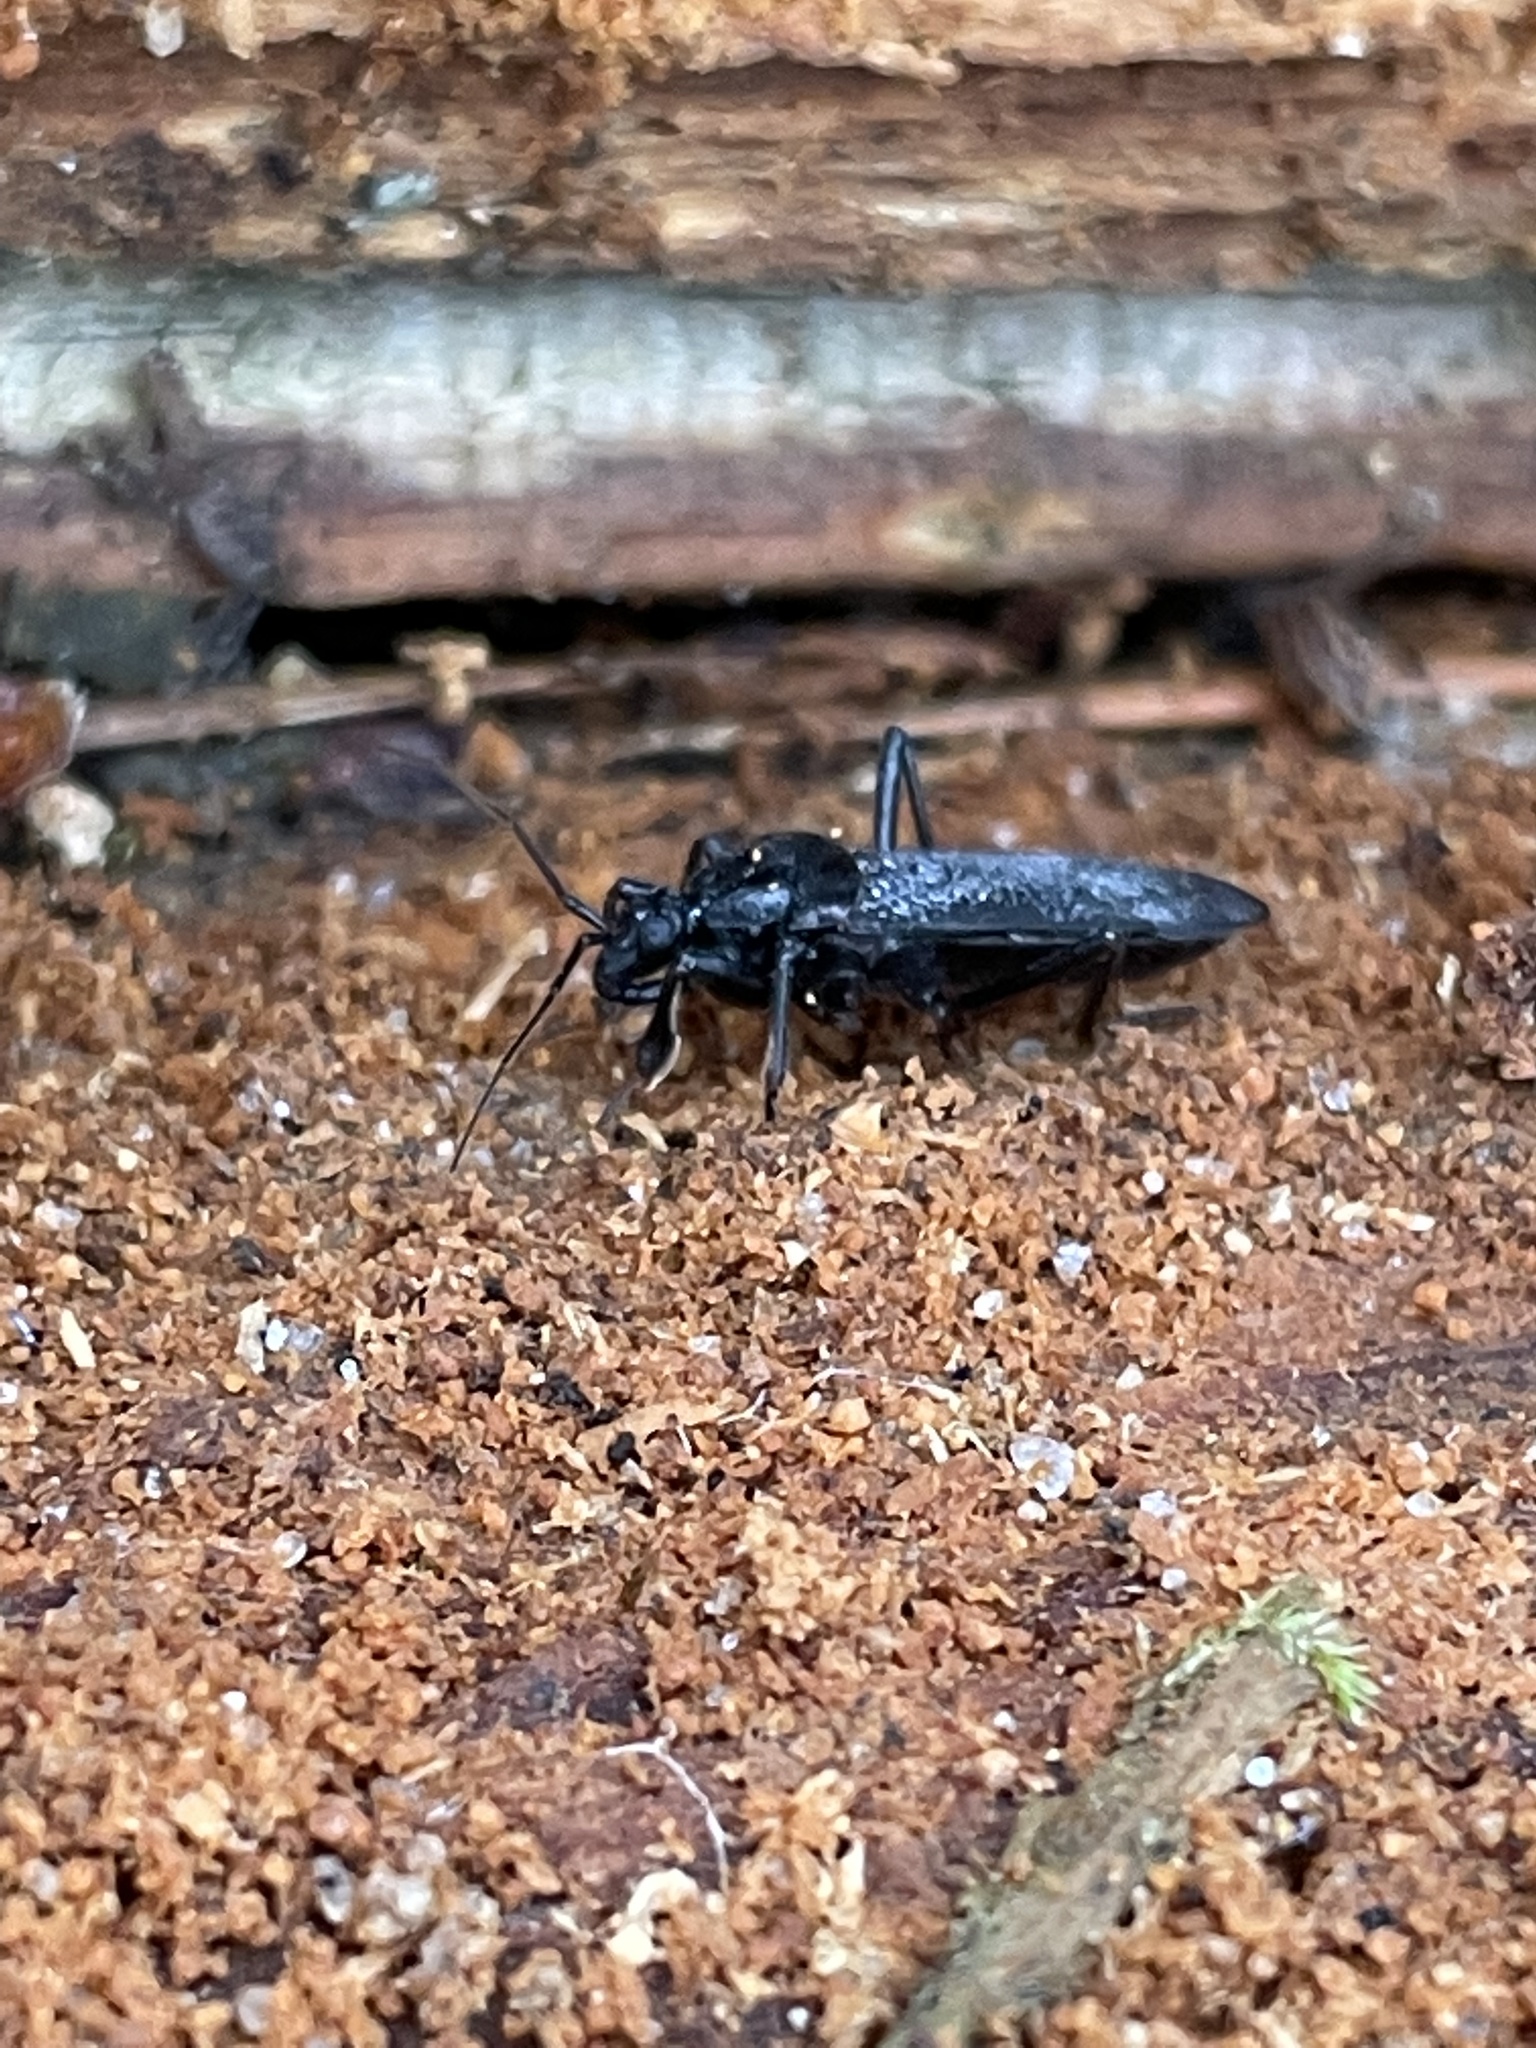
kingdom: Animalia
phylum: Arthropoda
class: Insecta
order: Hemiptera
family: Reduviidae
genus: Melanolestes
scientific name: Melanolestes picipes
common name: Assassin bug
